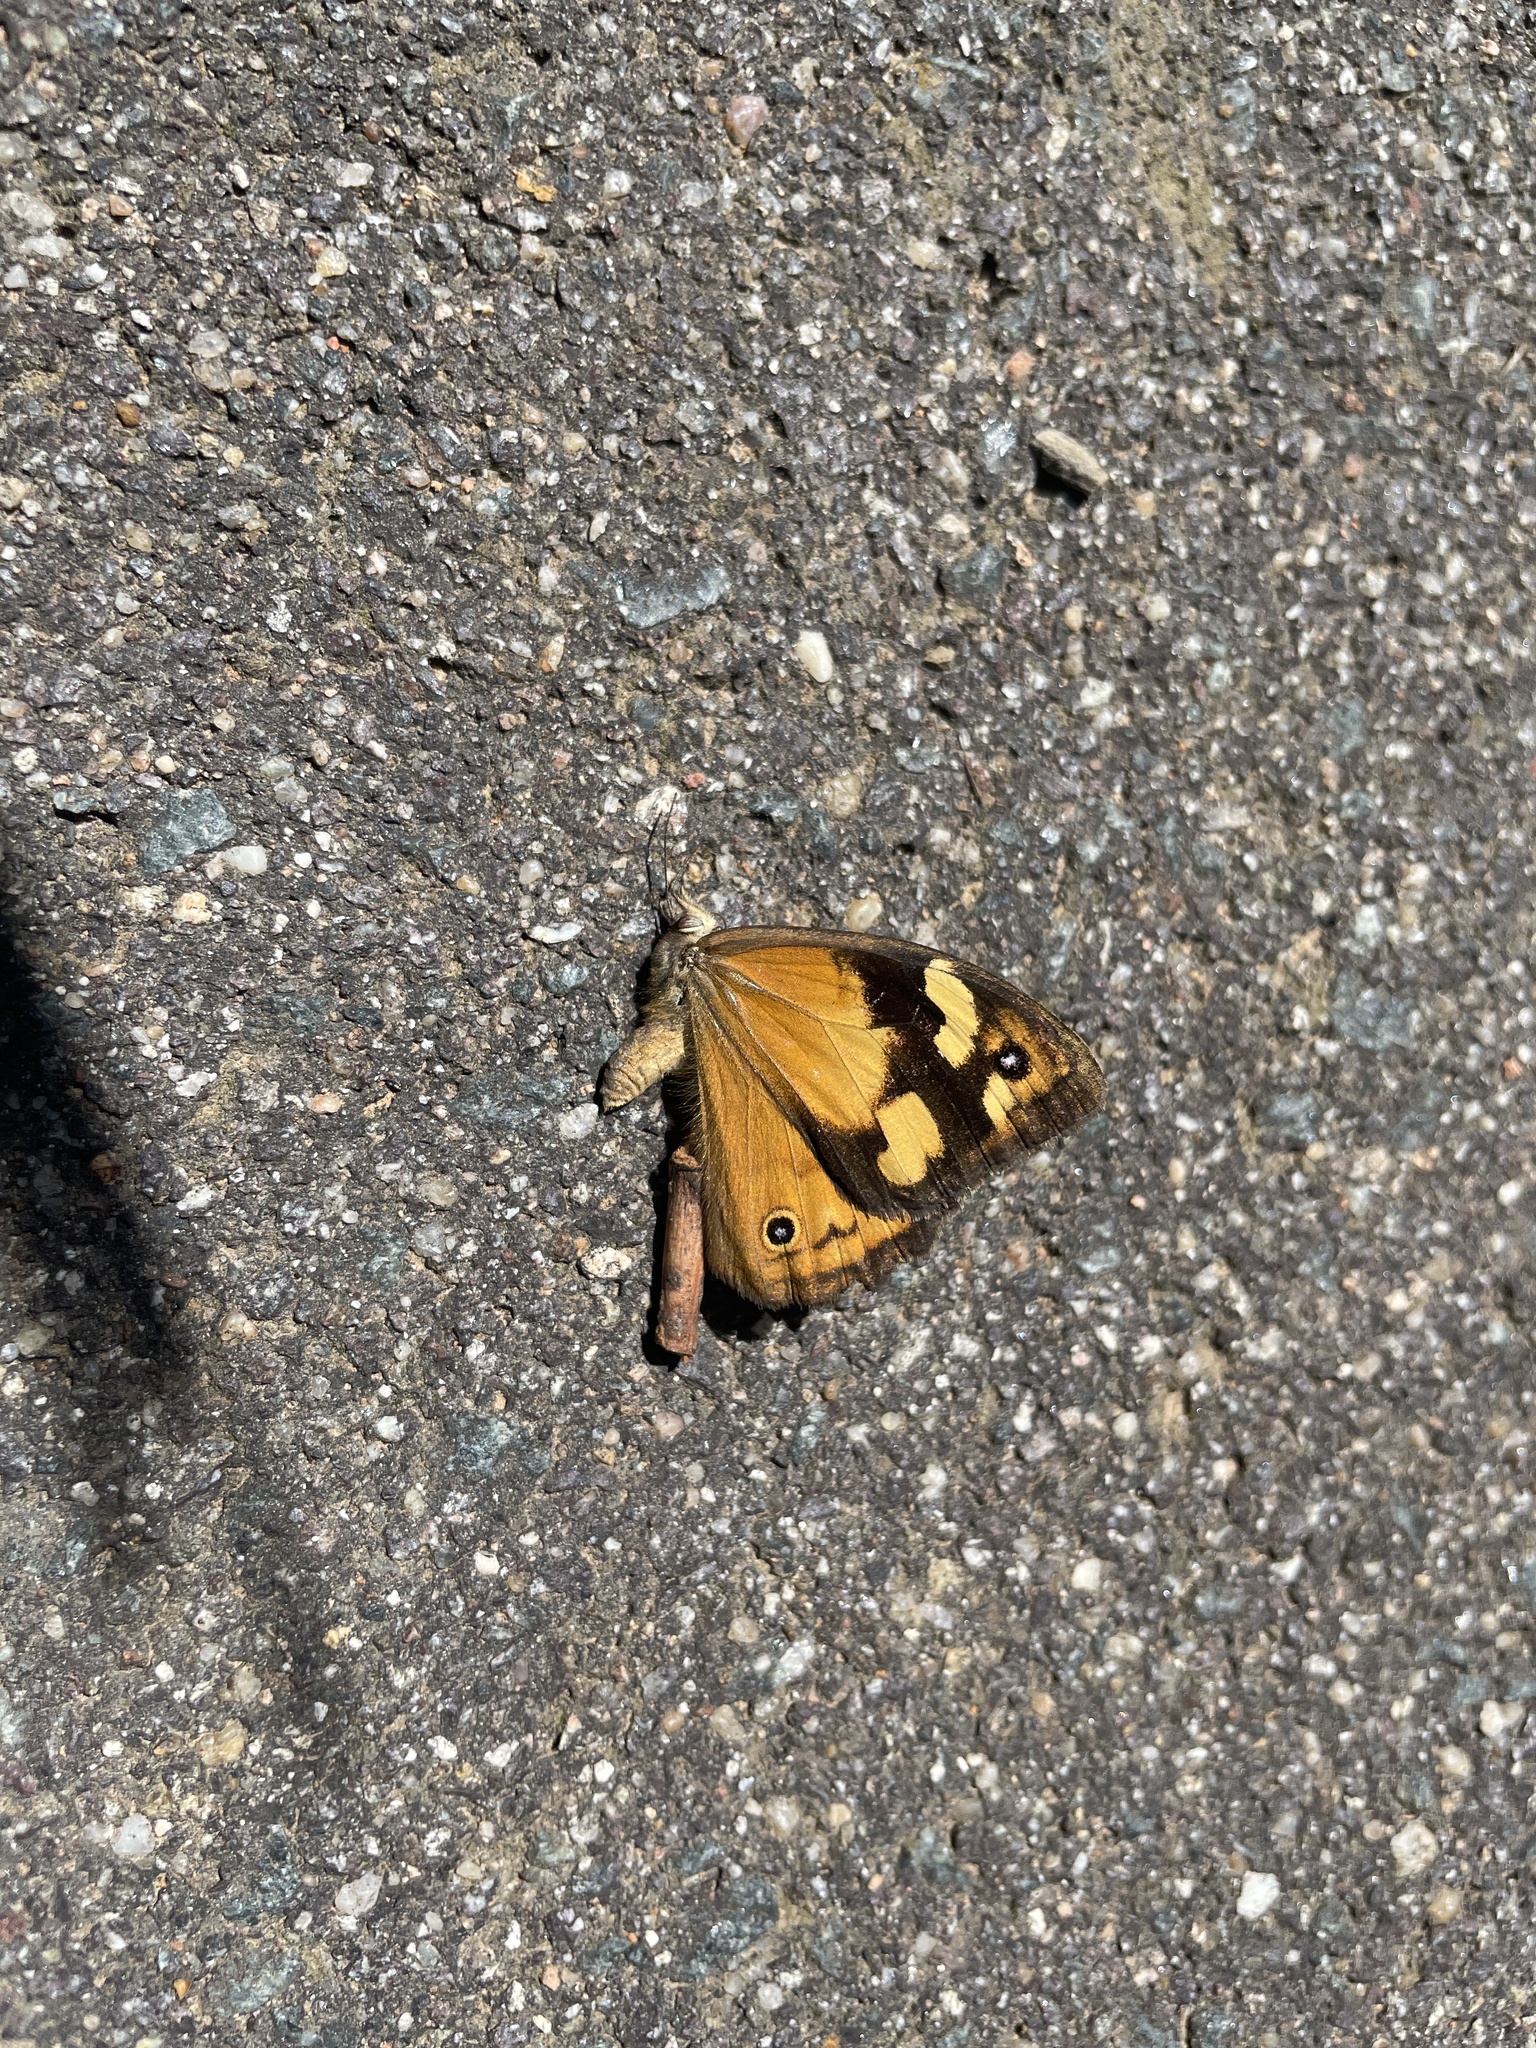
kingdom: Animalia
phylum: Arthropoda
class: Insecta
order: Lepidoptera
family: Nymphalidae
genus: Heteronympha
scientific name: Heteronympha merope
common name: Common brown
